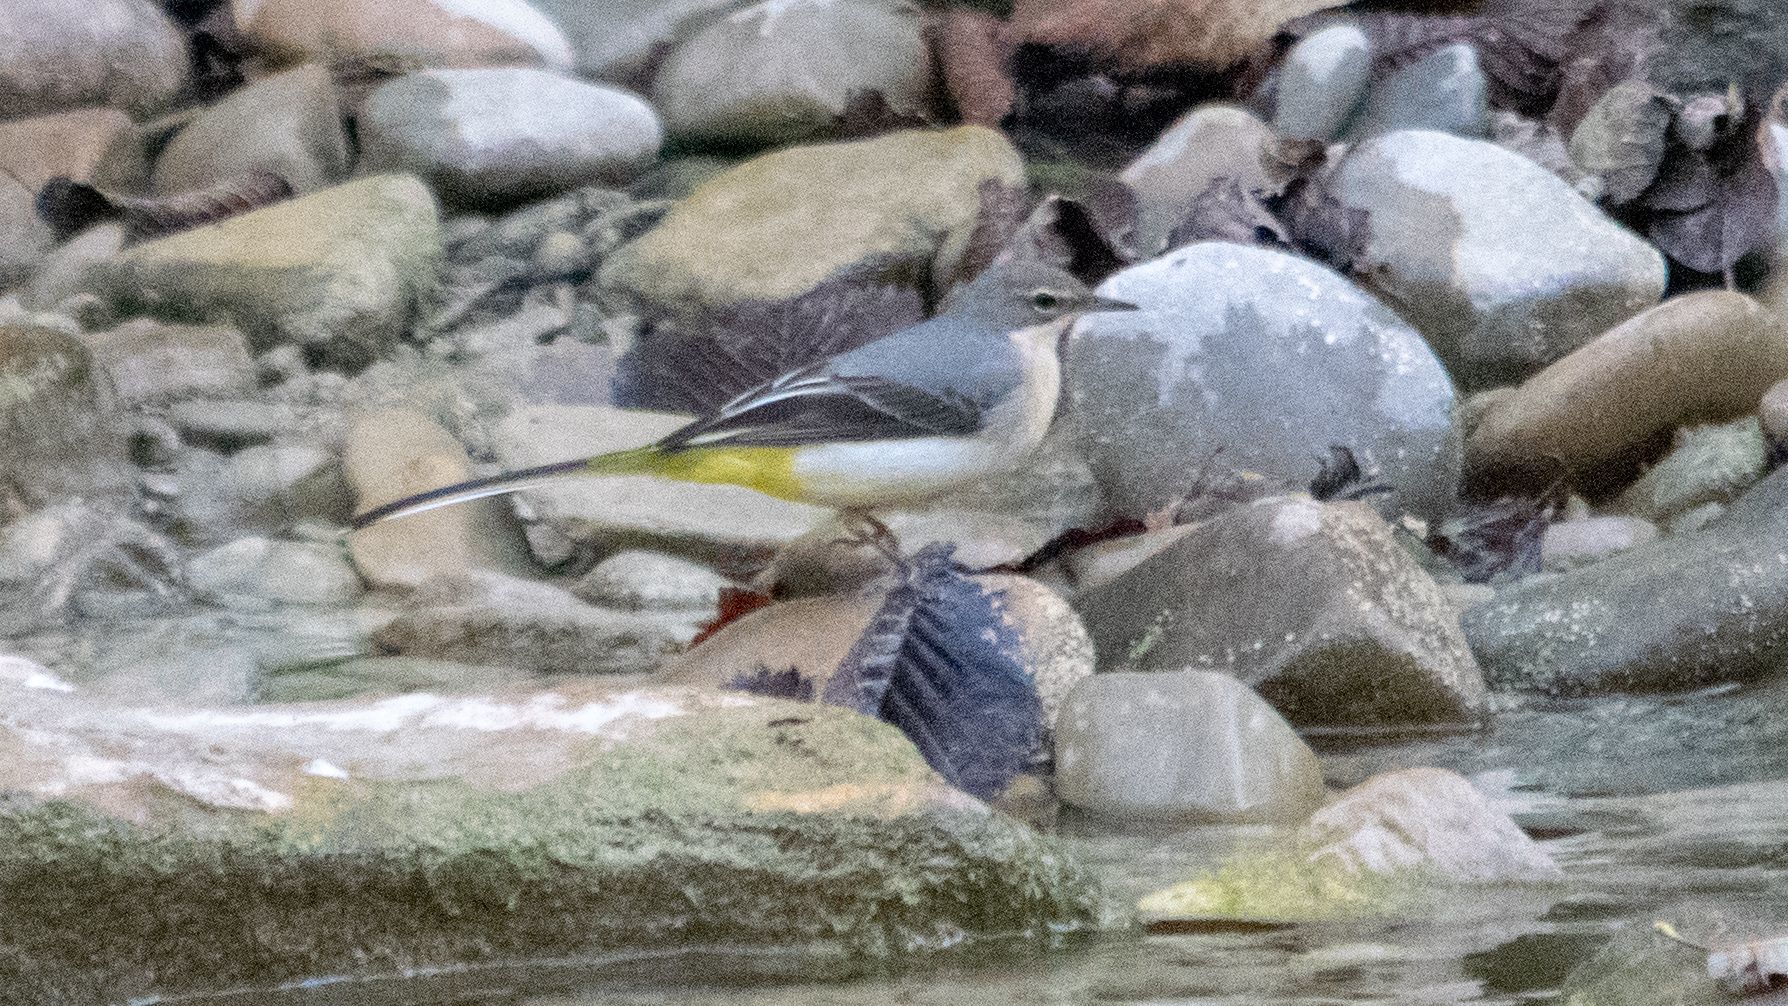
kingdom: Animalia
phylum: Chordata
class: Aves
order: Passeriformes
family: Motacillidae
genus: Motacilla
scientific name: Motacilla cinerea
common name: Grey wagtail
